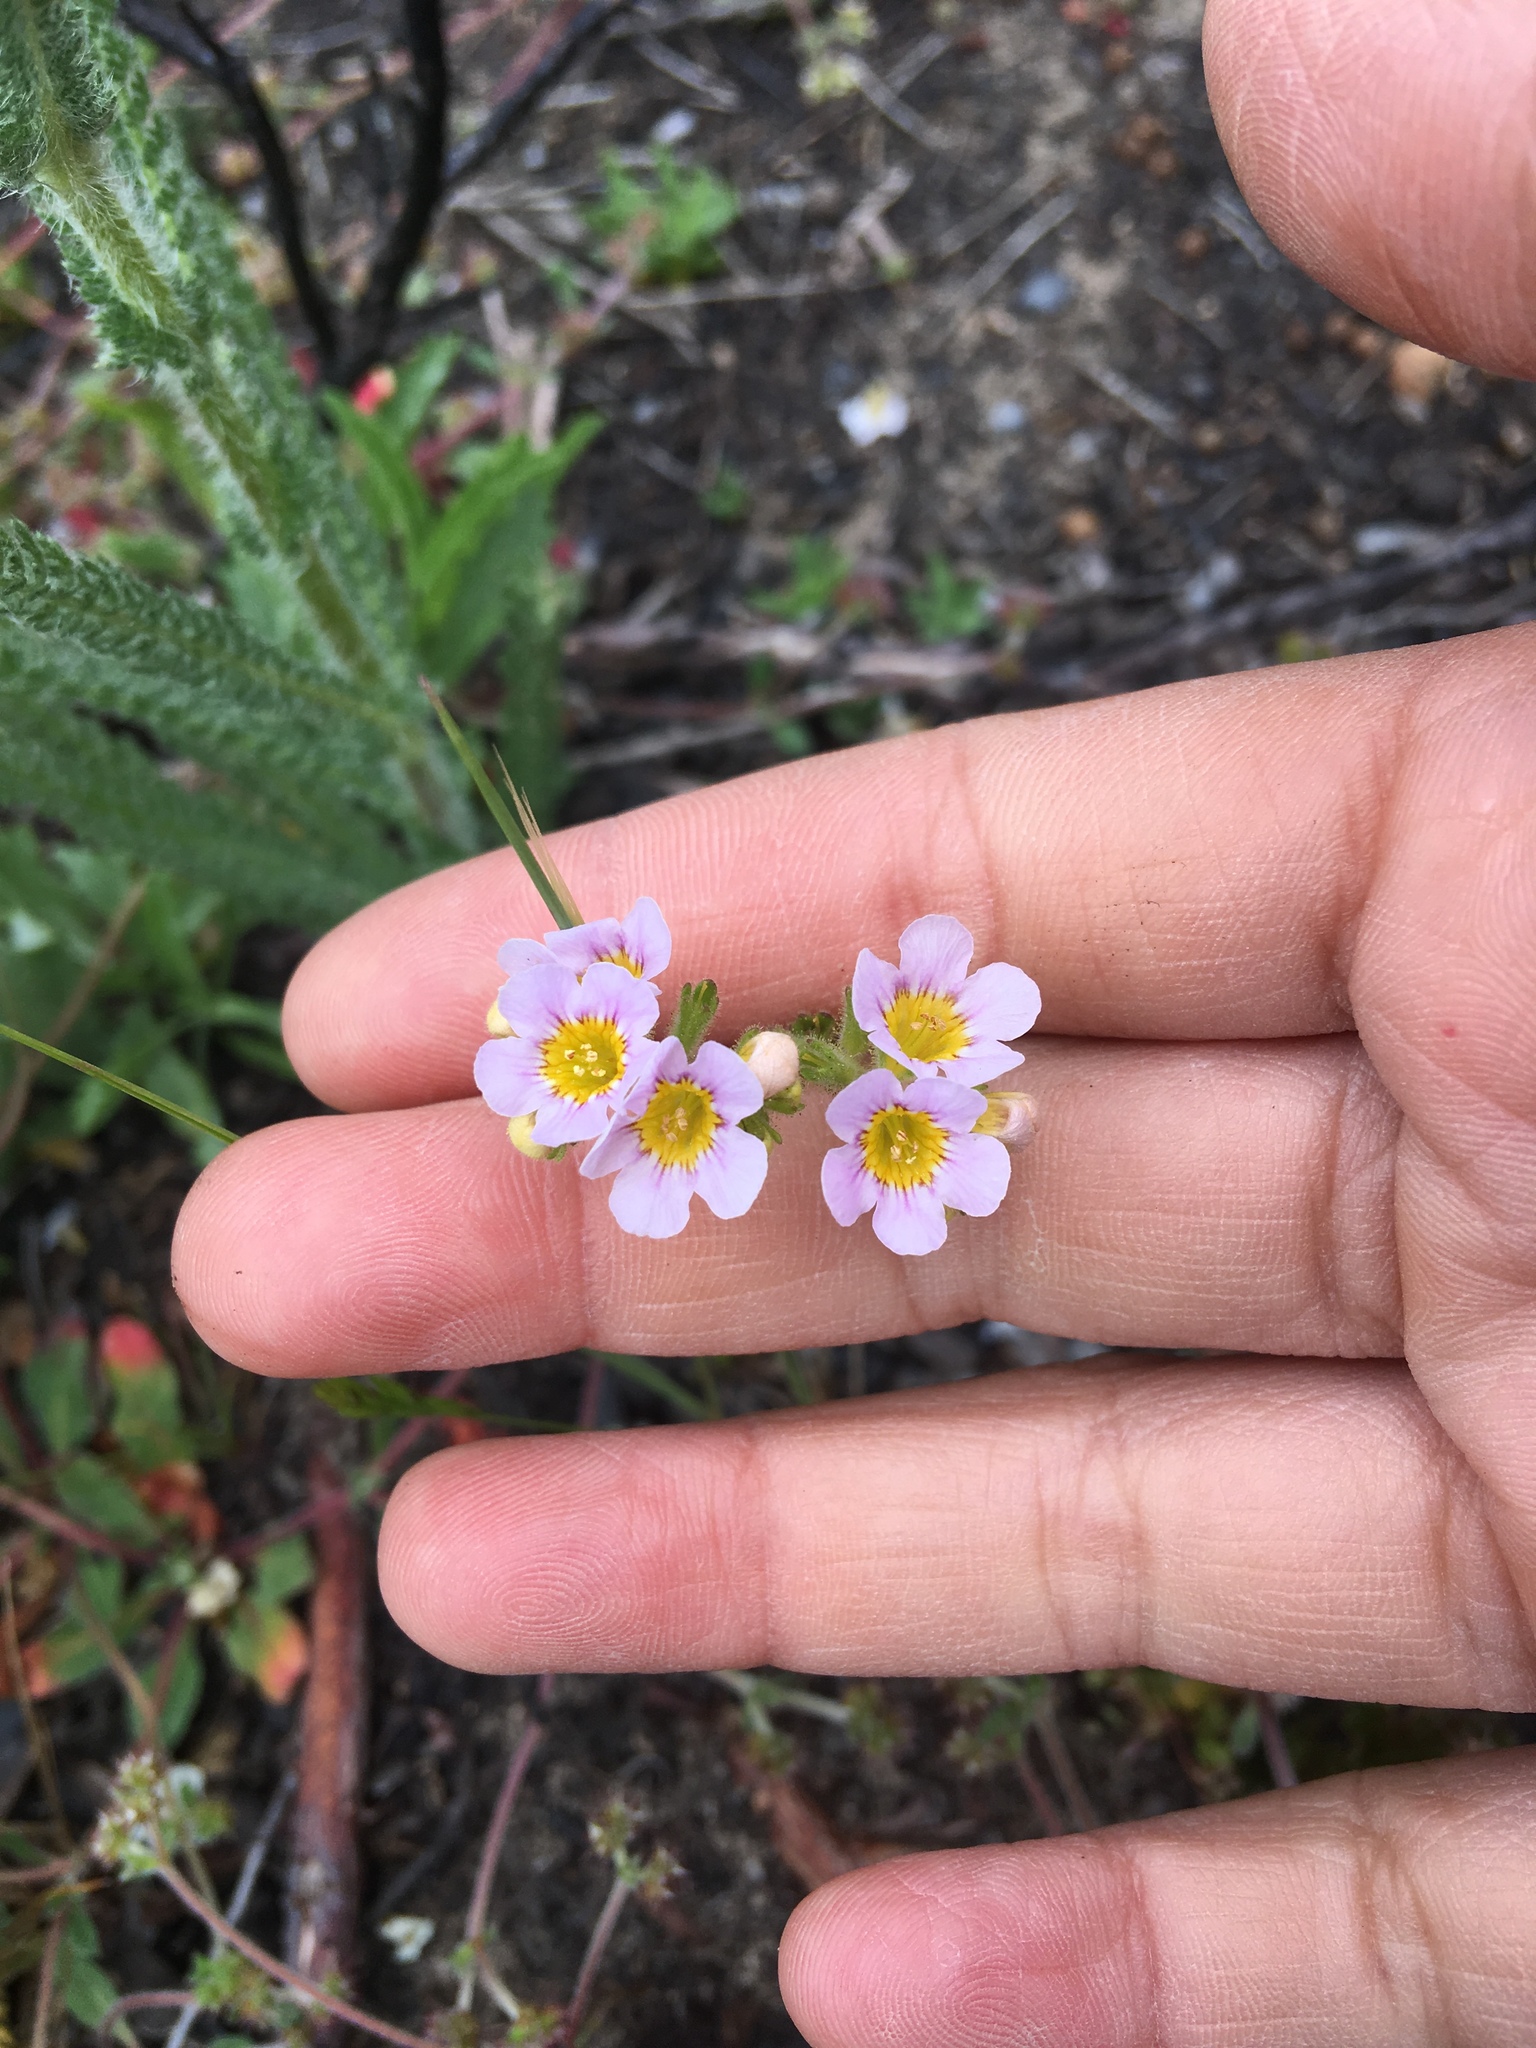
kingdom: Plantae
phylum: Tracheophyta
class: Magnoliopsida
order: Boraginales
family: Hydrophyllaceae
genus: Phacelia
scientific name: Phacelia brachyloba
